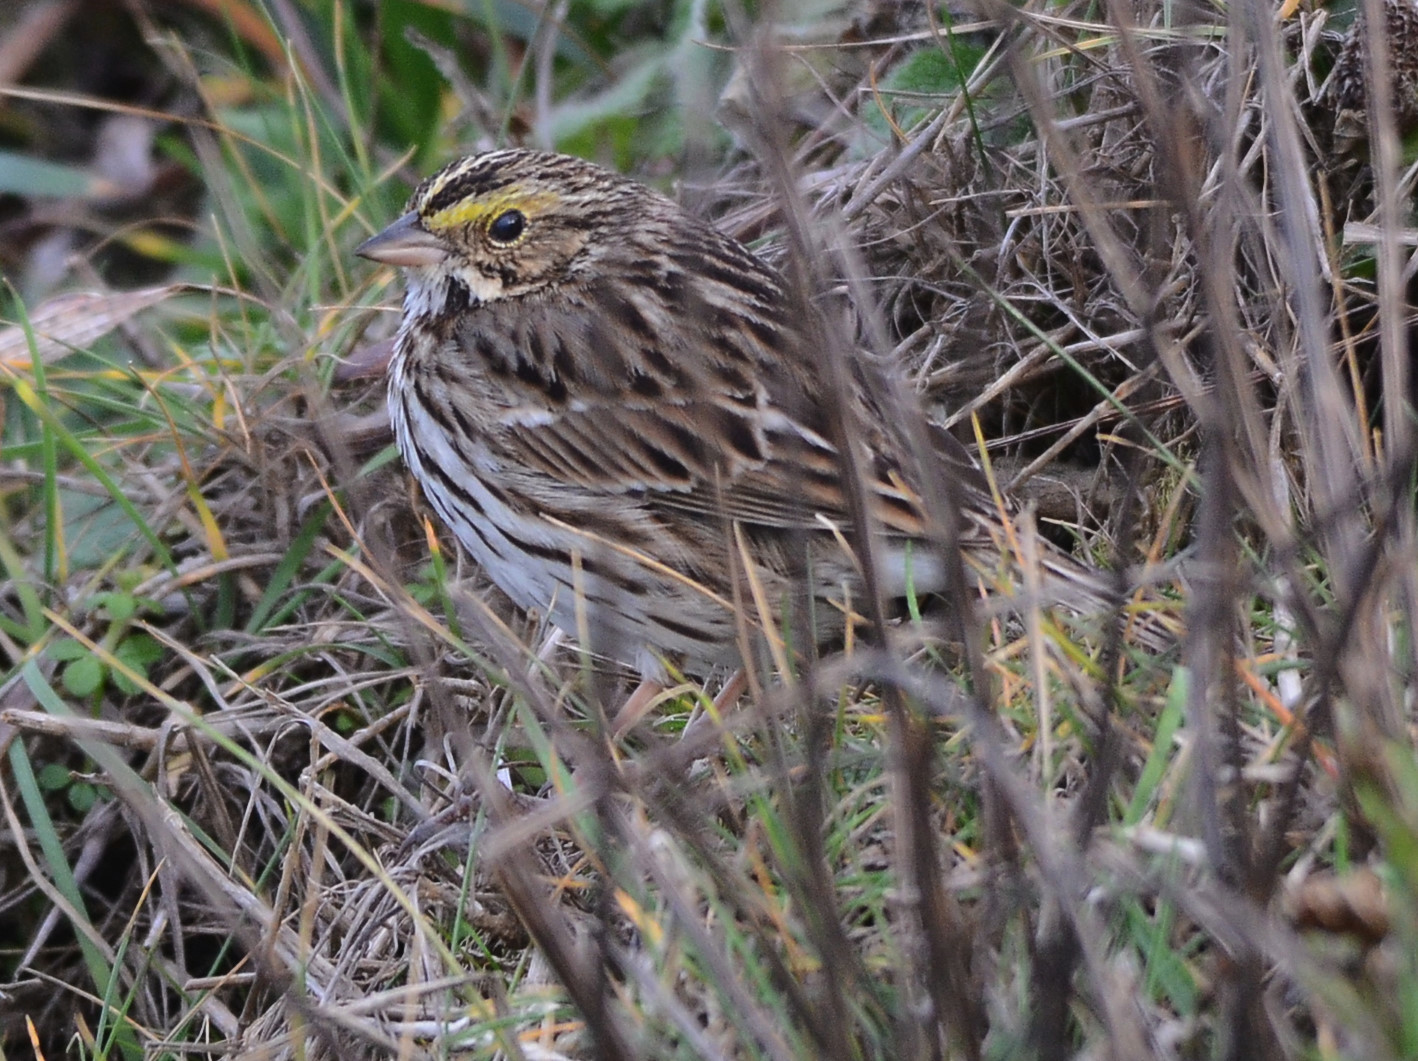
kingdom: Animalia
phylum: Chordata
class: Aves
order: Passeriformes
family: Passerellidae
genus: Passerculus
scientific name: Passerculus sandwichensis
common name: Savannah sparrow
